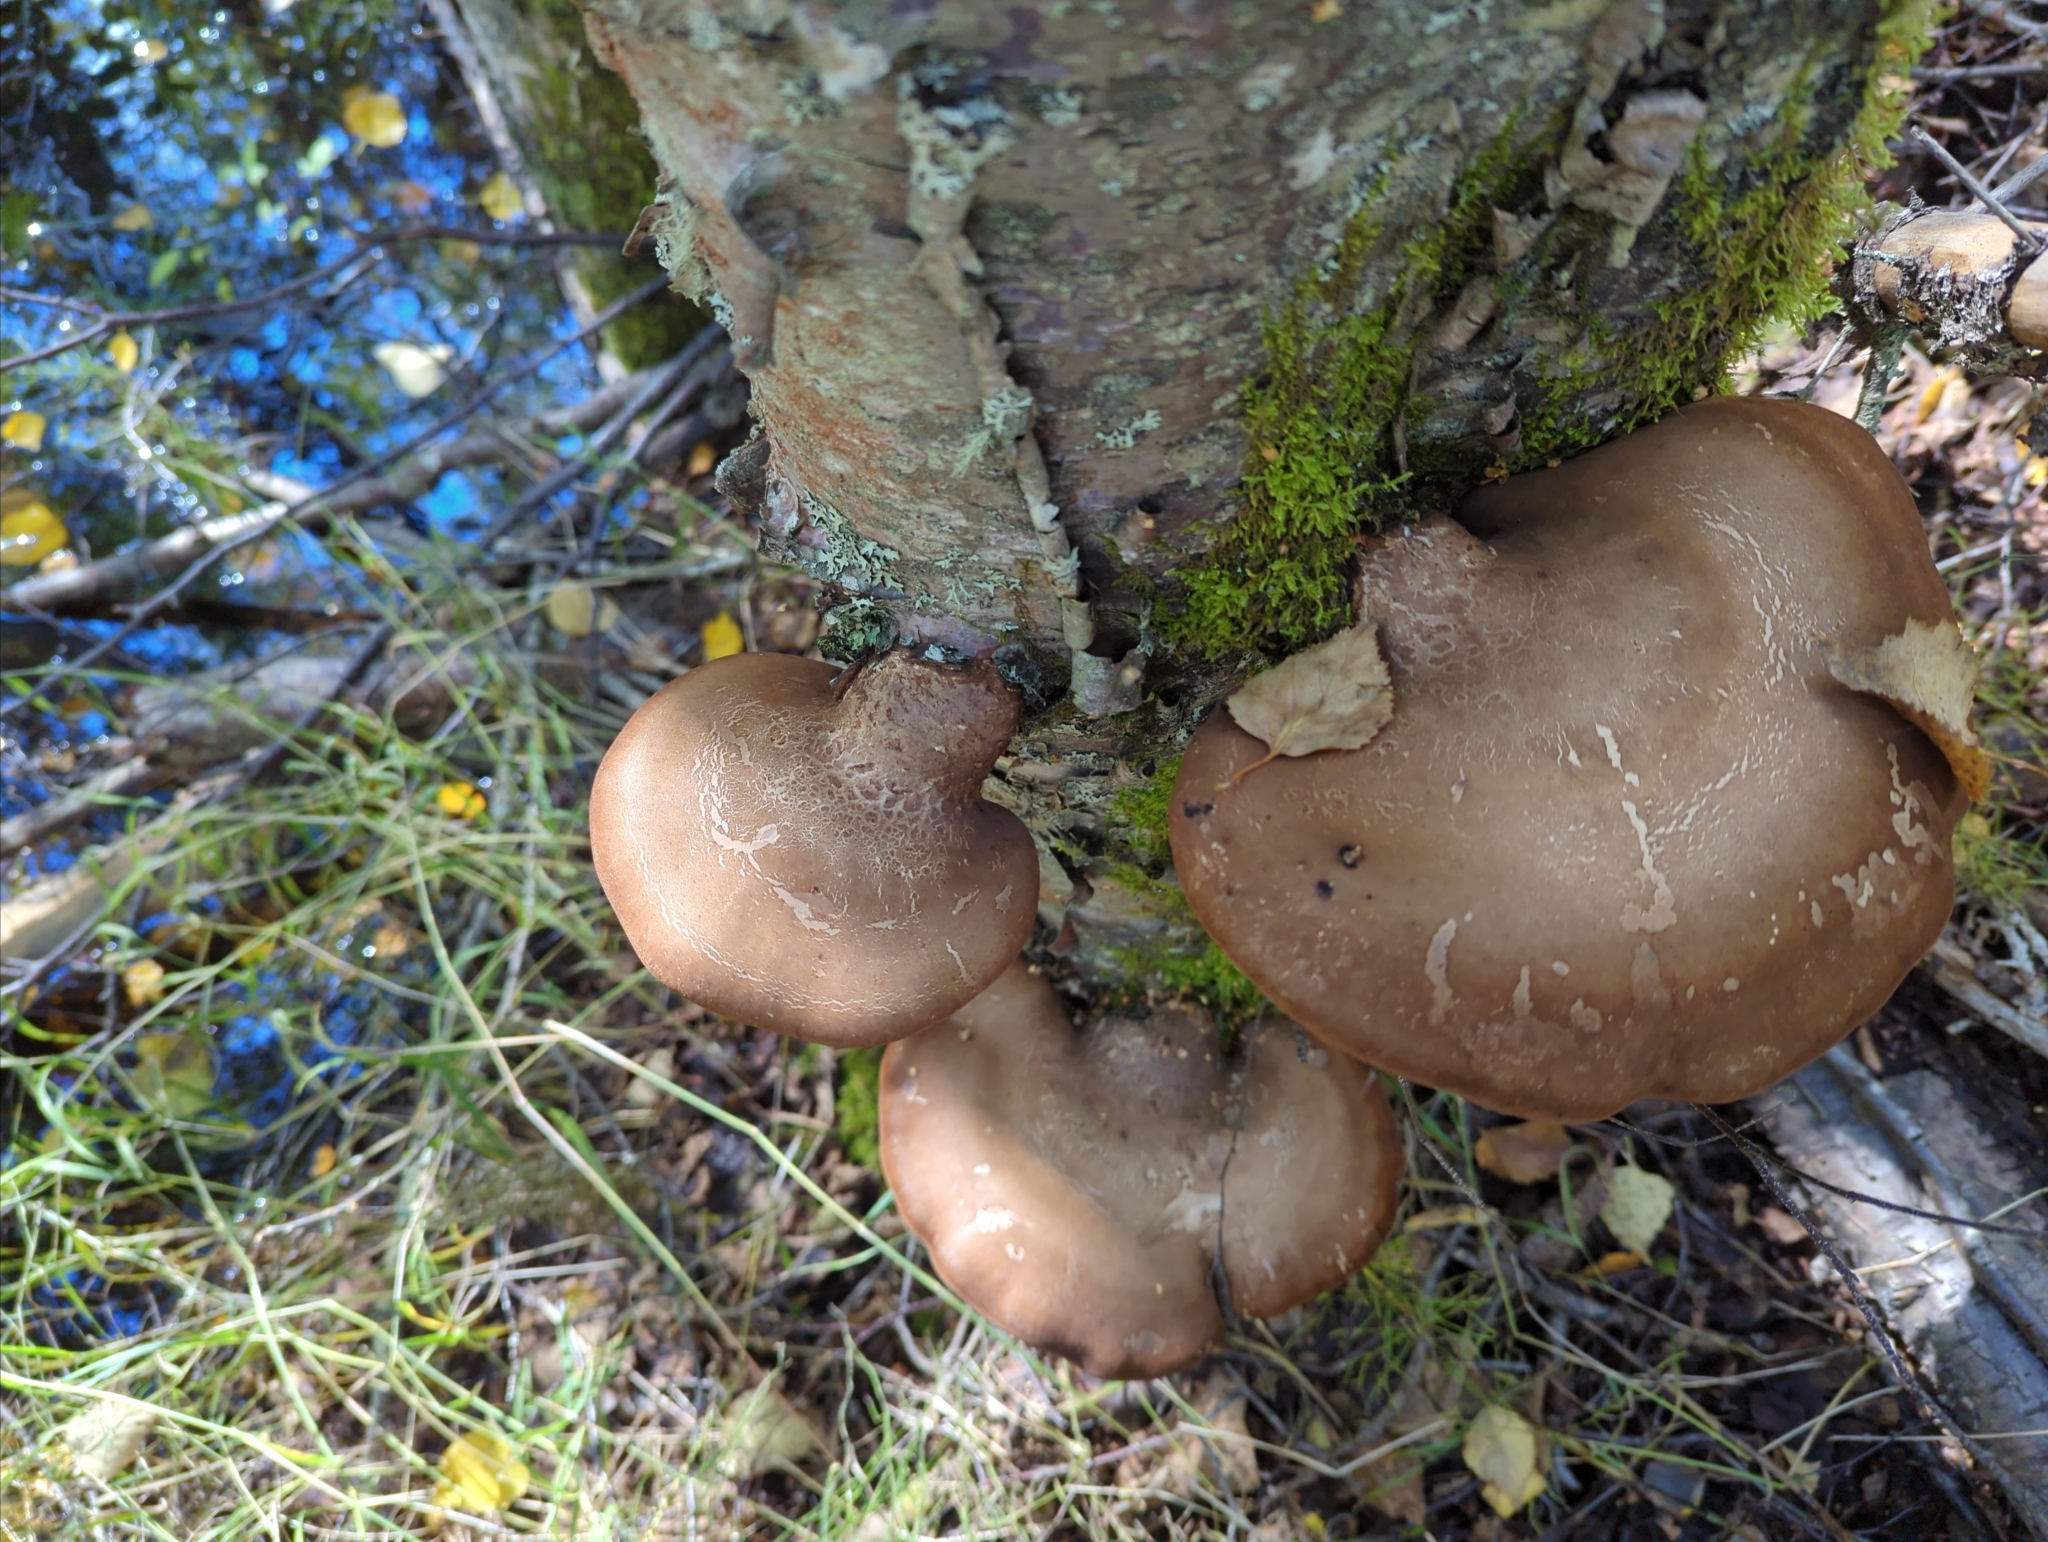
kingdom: Fungi
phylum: Basidiomycota
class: Agaricomycetes
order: Polyporales
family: Fomitopsidaceae
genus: Fomitopsis
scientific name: Fomitopsis betulina
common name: Birch polypore
